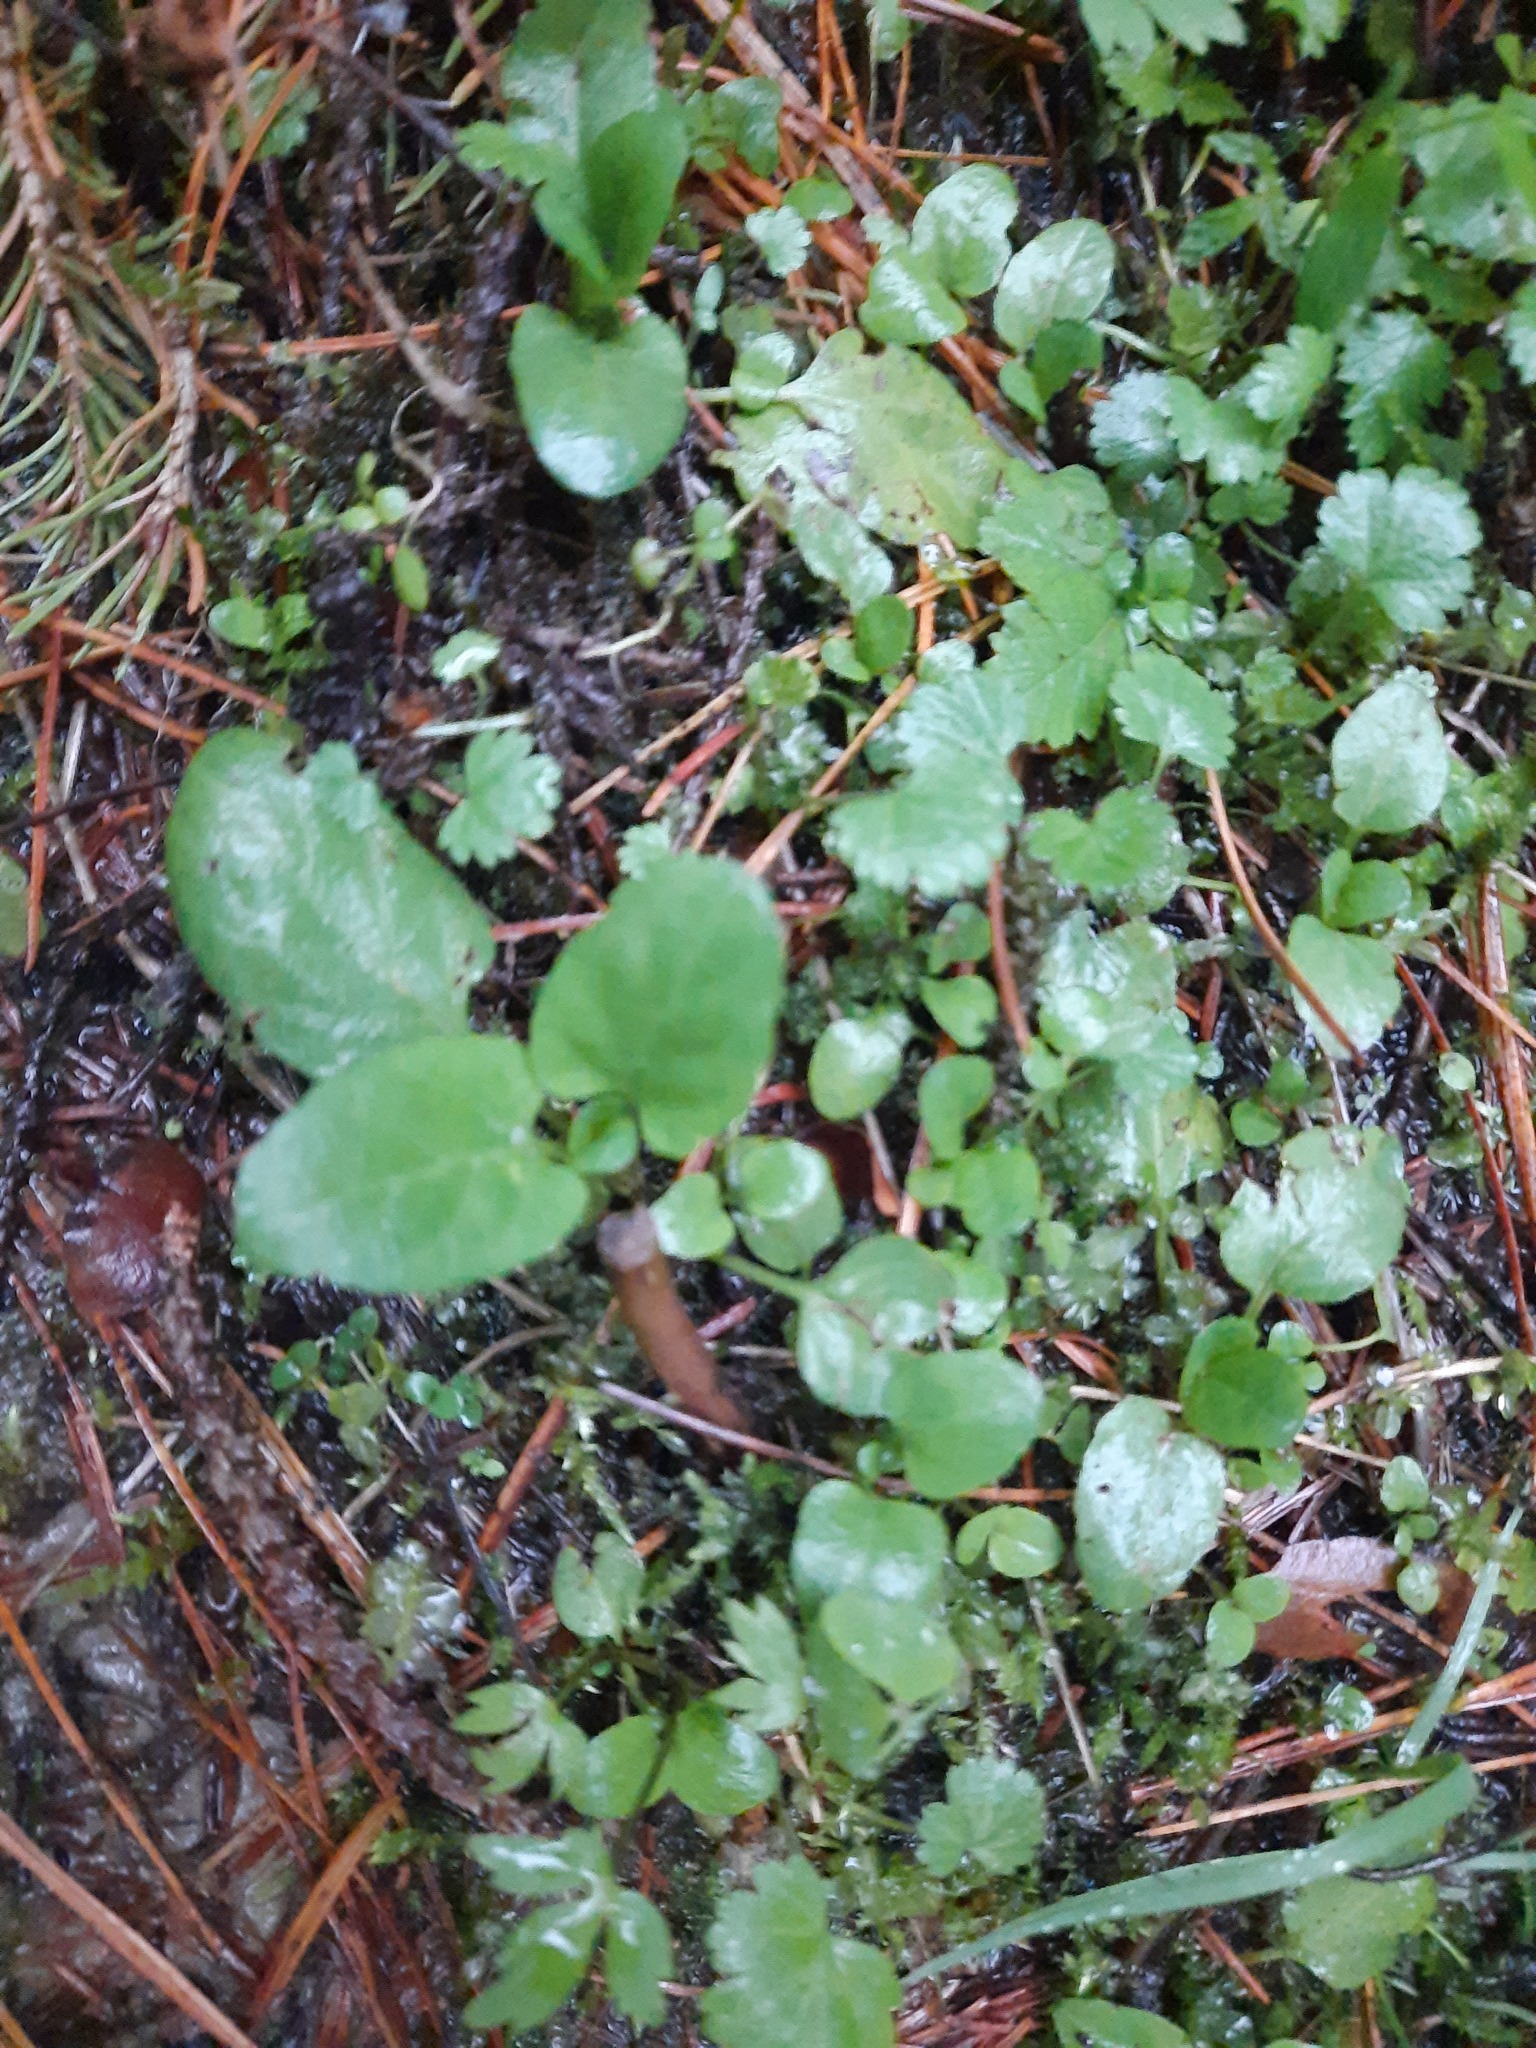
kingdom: Plantae
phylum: Tracheophyta
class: Magnoliopsida
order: Dipsacales
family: Caprifoliaceae
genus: Linnaea
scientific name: Linnaea borealis
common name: Twinflower
